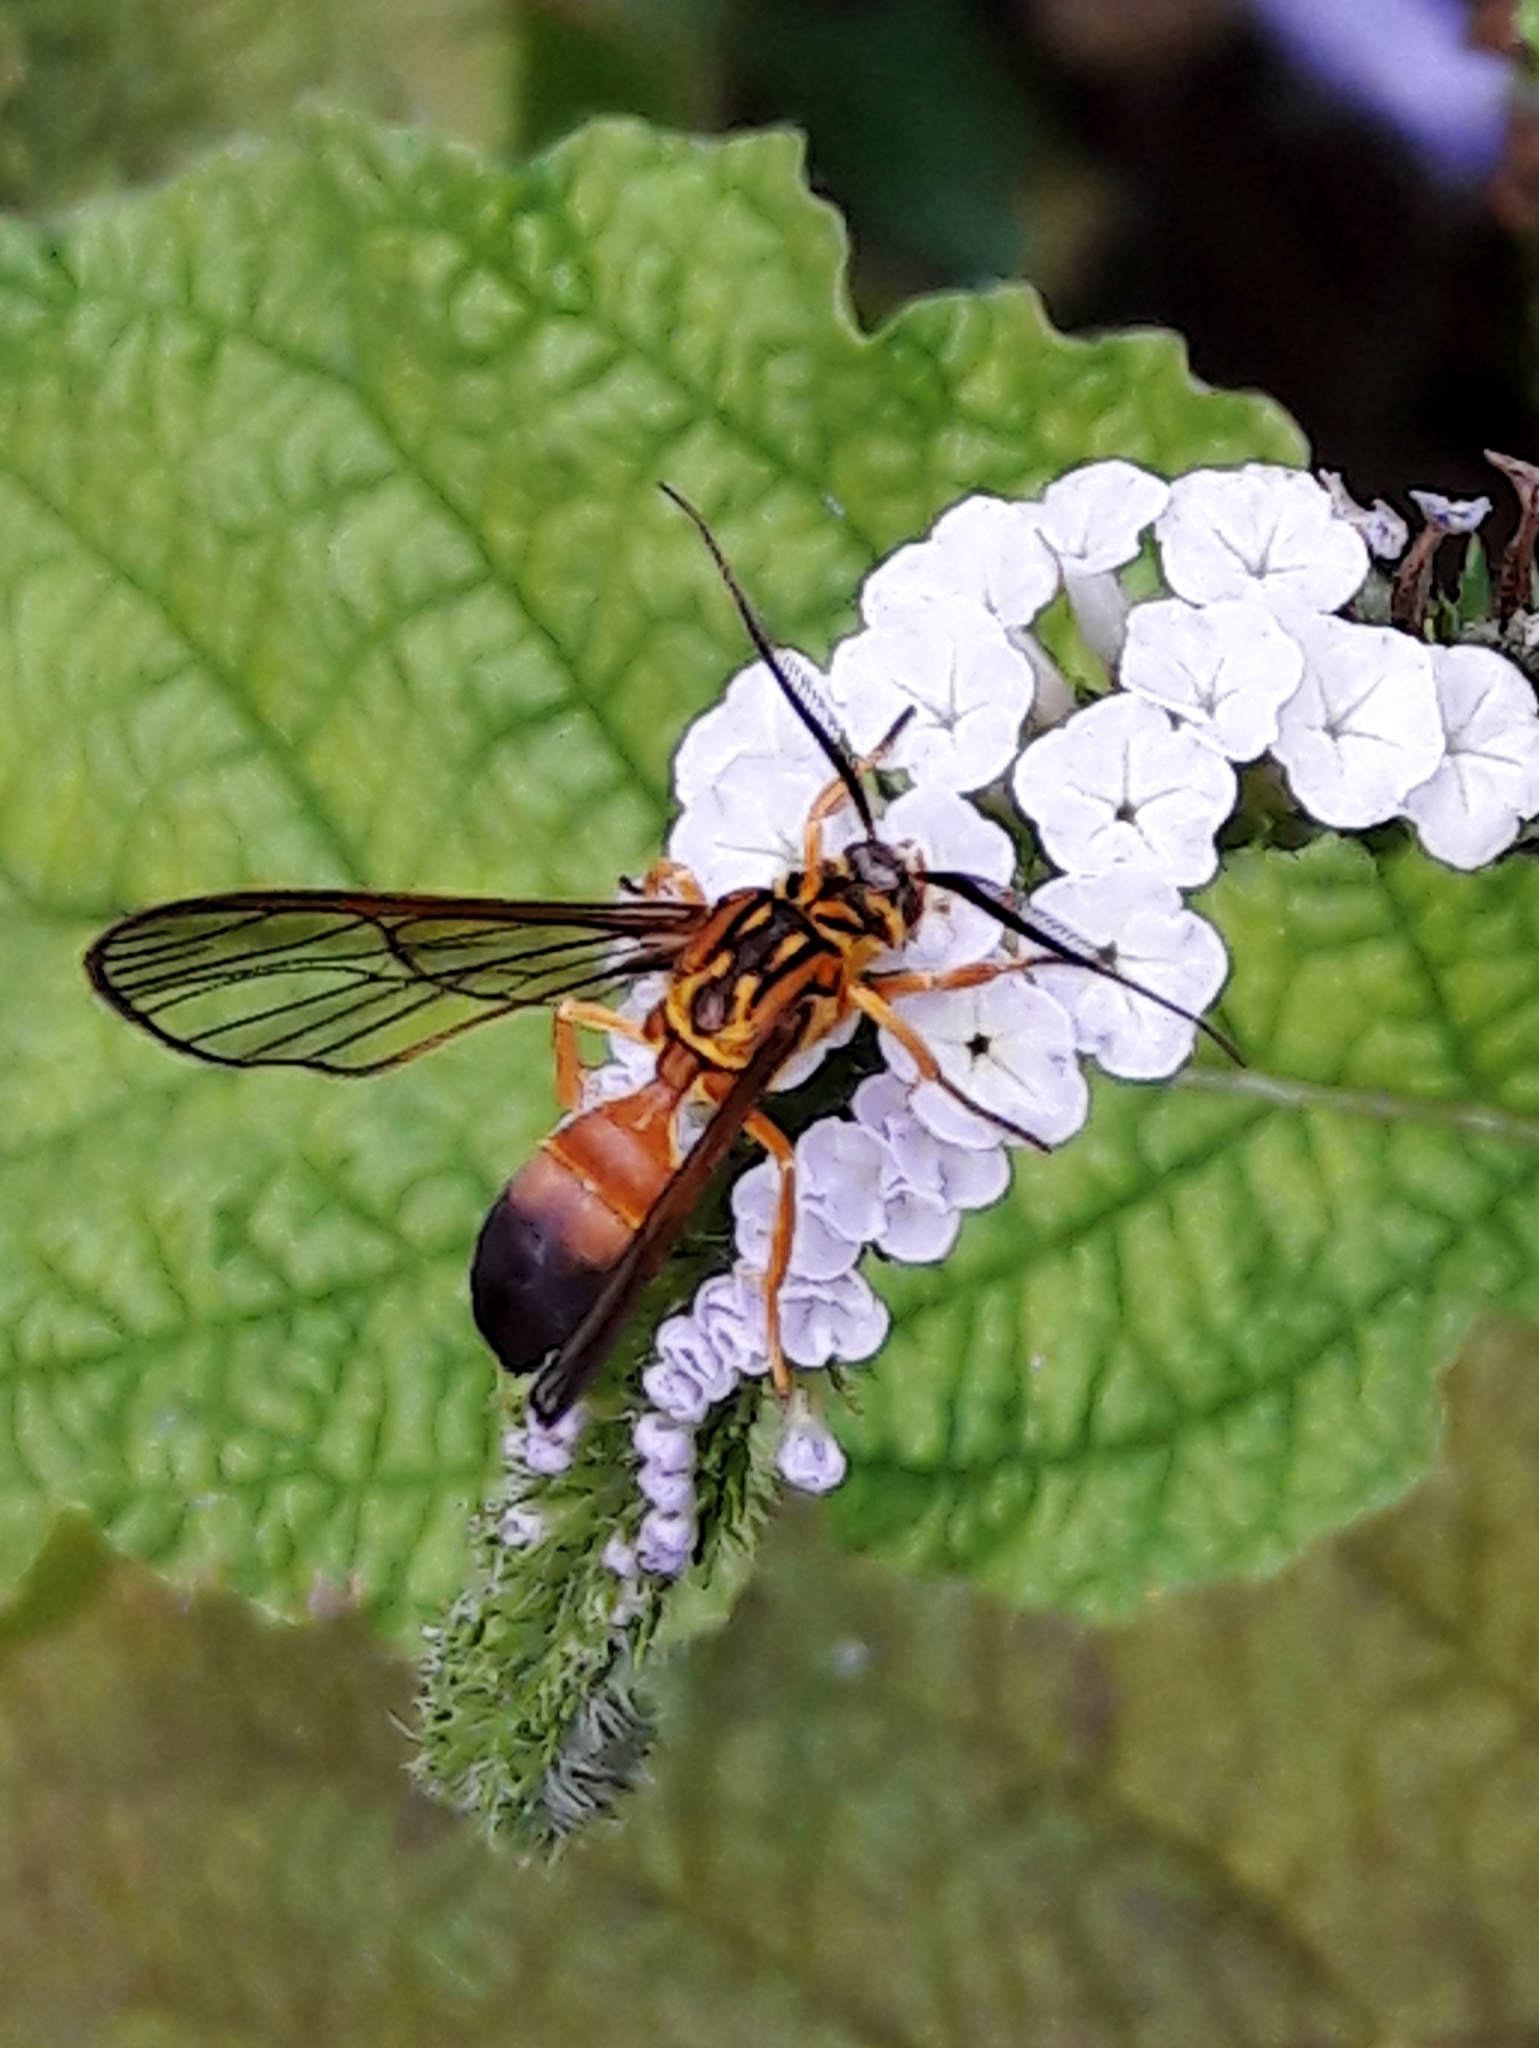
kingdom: Animalia
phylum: Arthropoda
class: Insecta
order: Lepidoptera
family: Erebidae
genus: Sphecosoma
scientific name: Sphecosoma abdominalis
